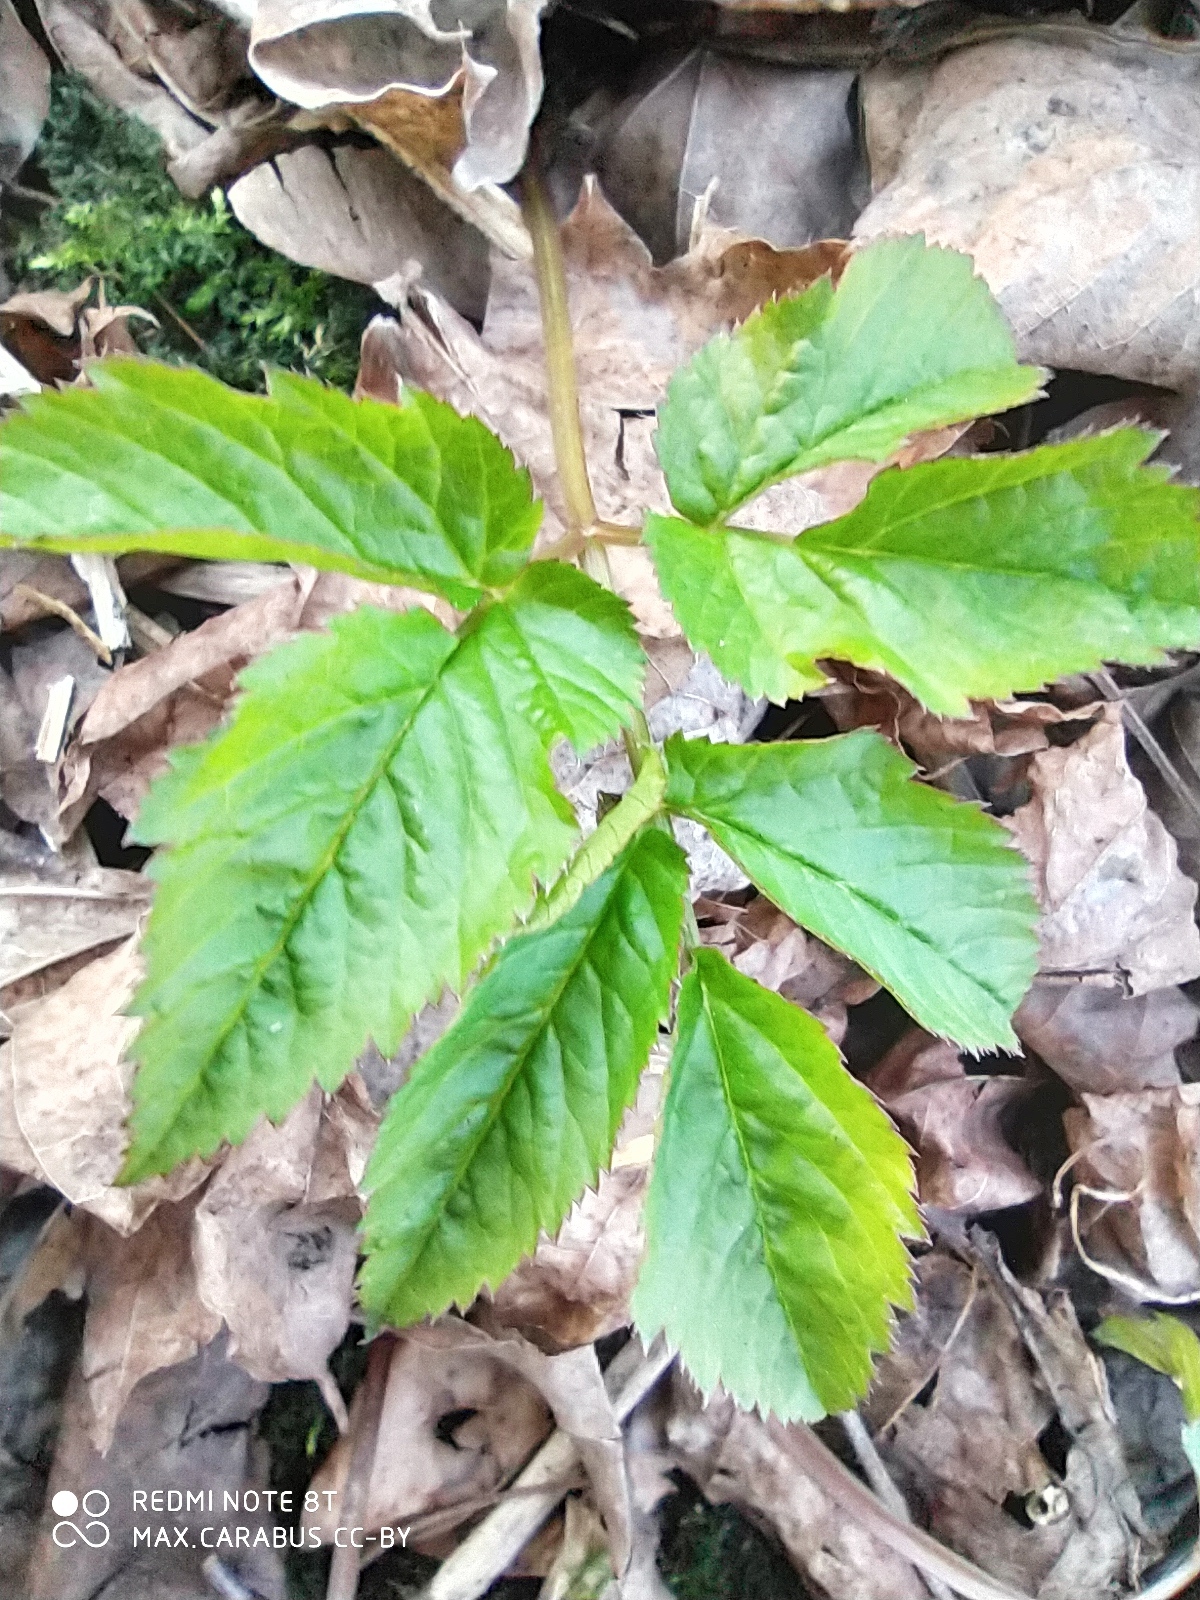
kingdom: Plantae
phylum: Tracheophyta
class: Magnoliopsida
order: Apiales
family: Apiaceae
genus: Aegopodium
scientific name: Aegopodium podagraria
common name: Ground-elder
